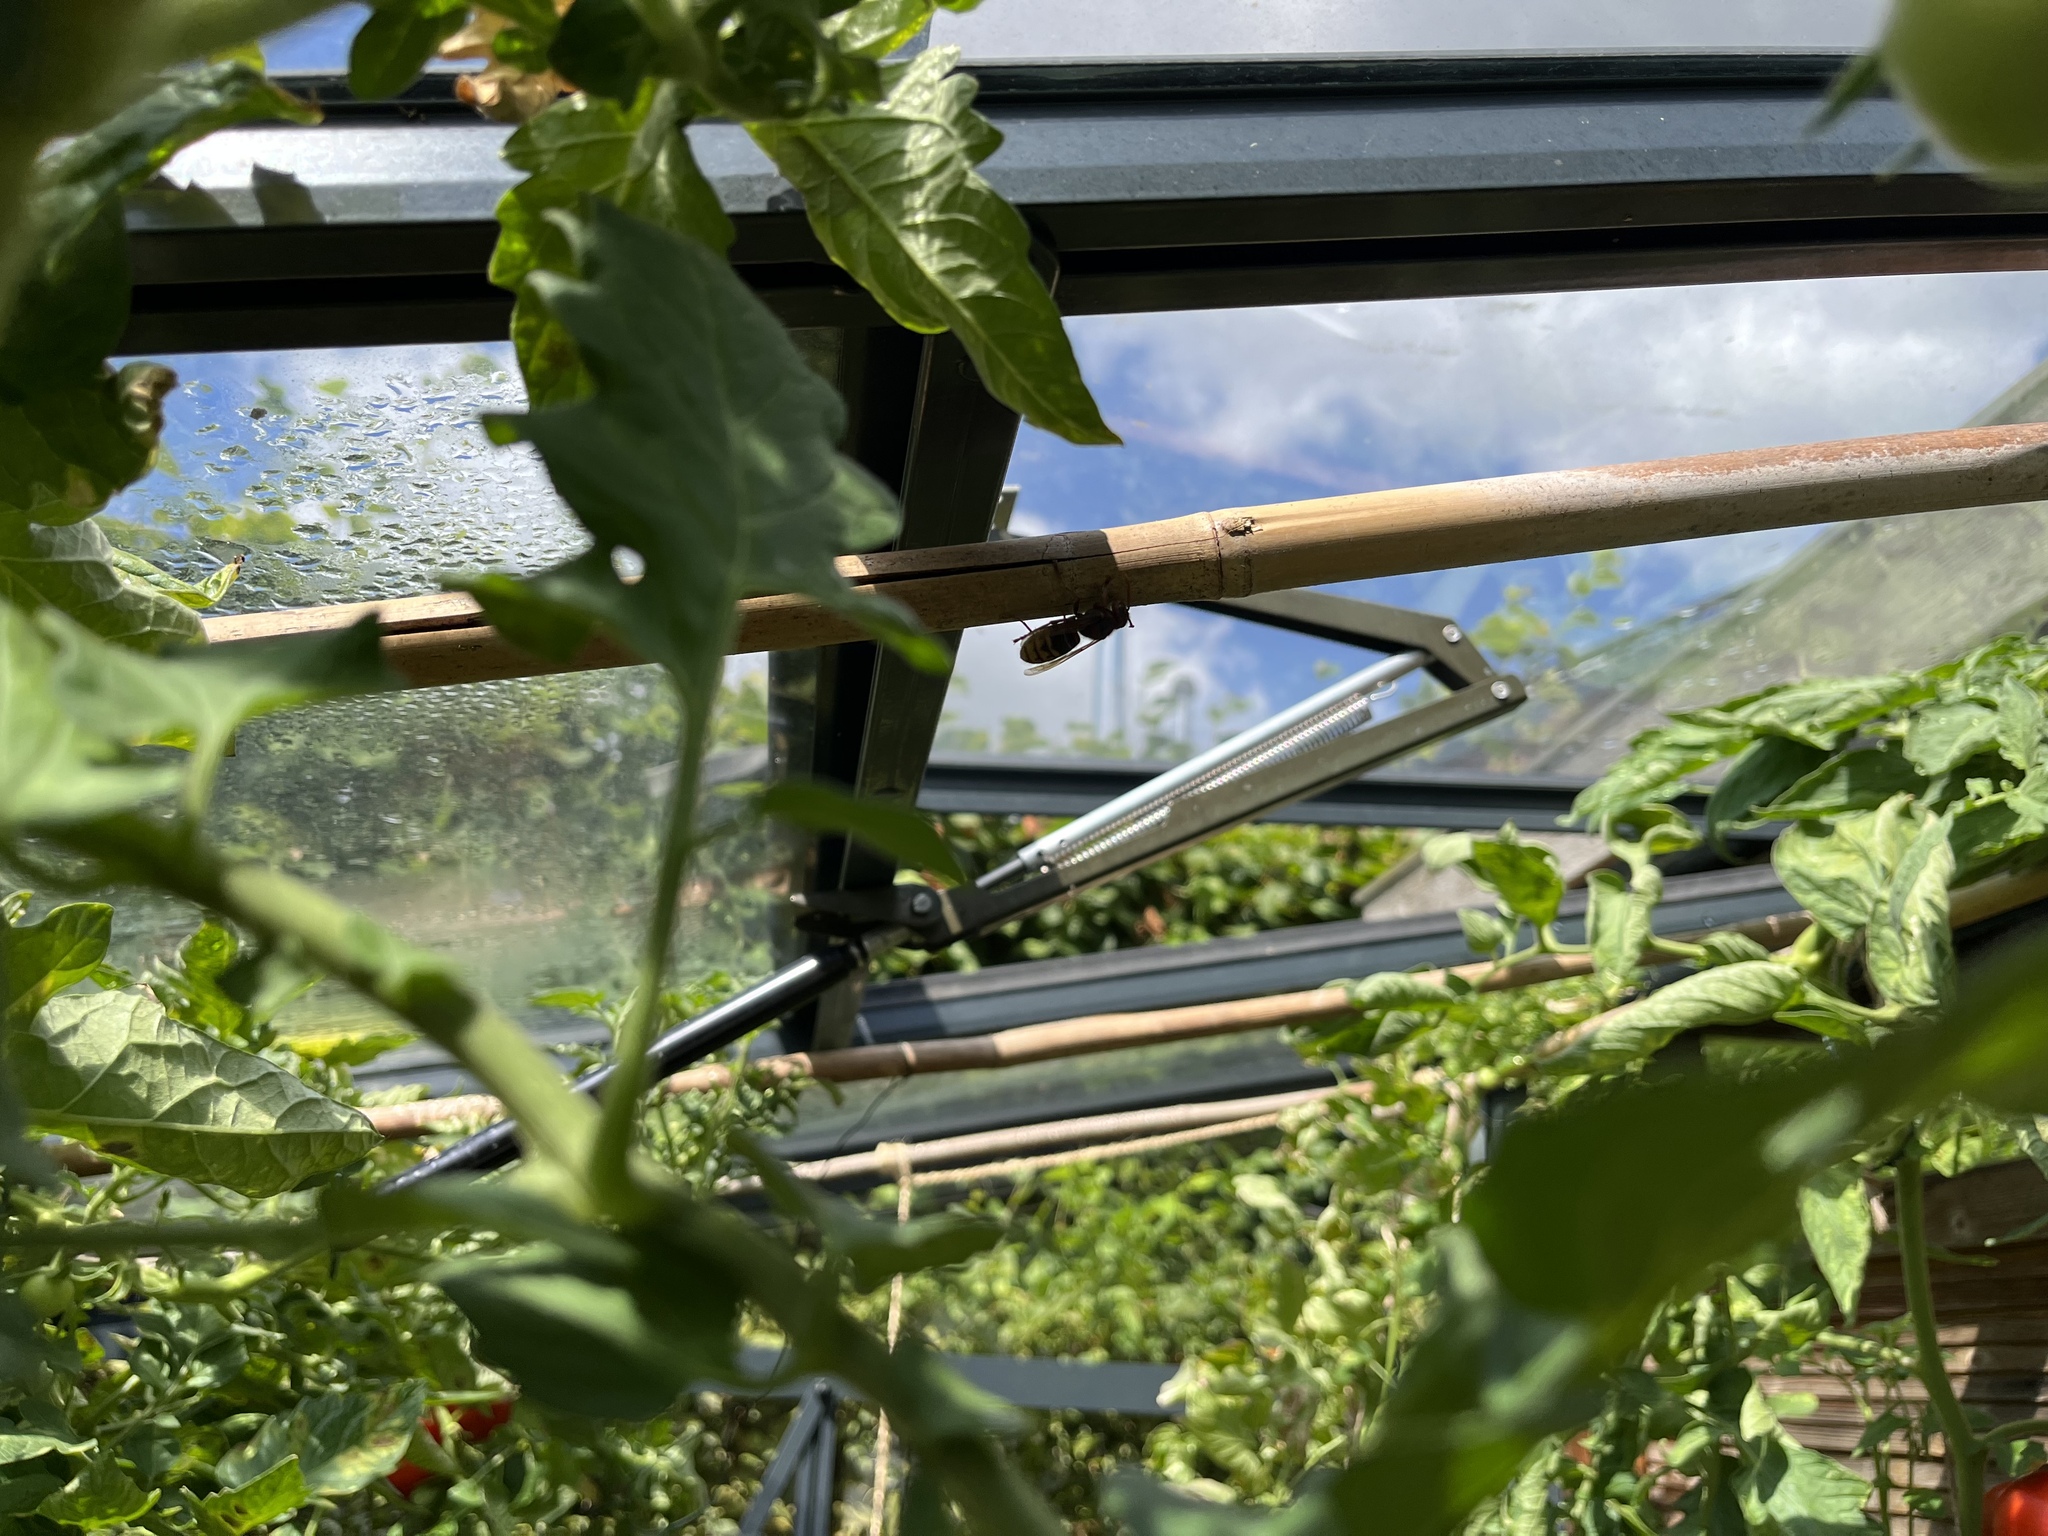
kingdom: Animalia
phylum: Arthropoda
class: Insecta
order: Hymenoptera
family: Vespidae
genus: Vespa
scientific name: Vespa crabro
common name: Hornet
